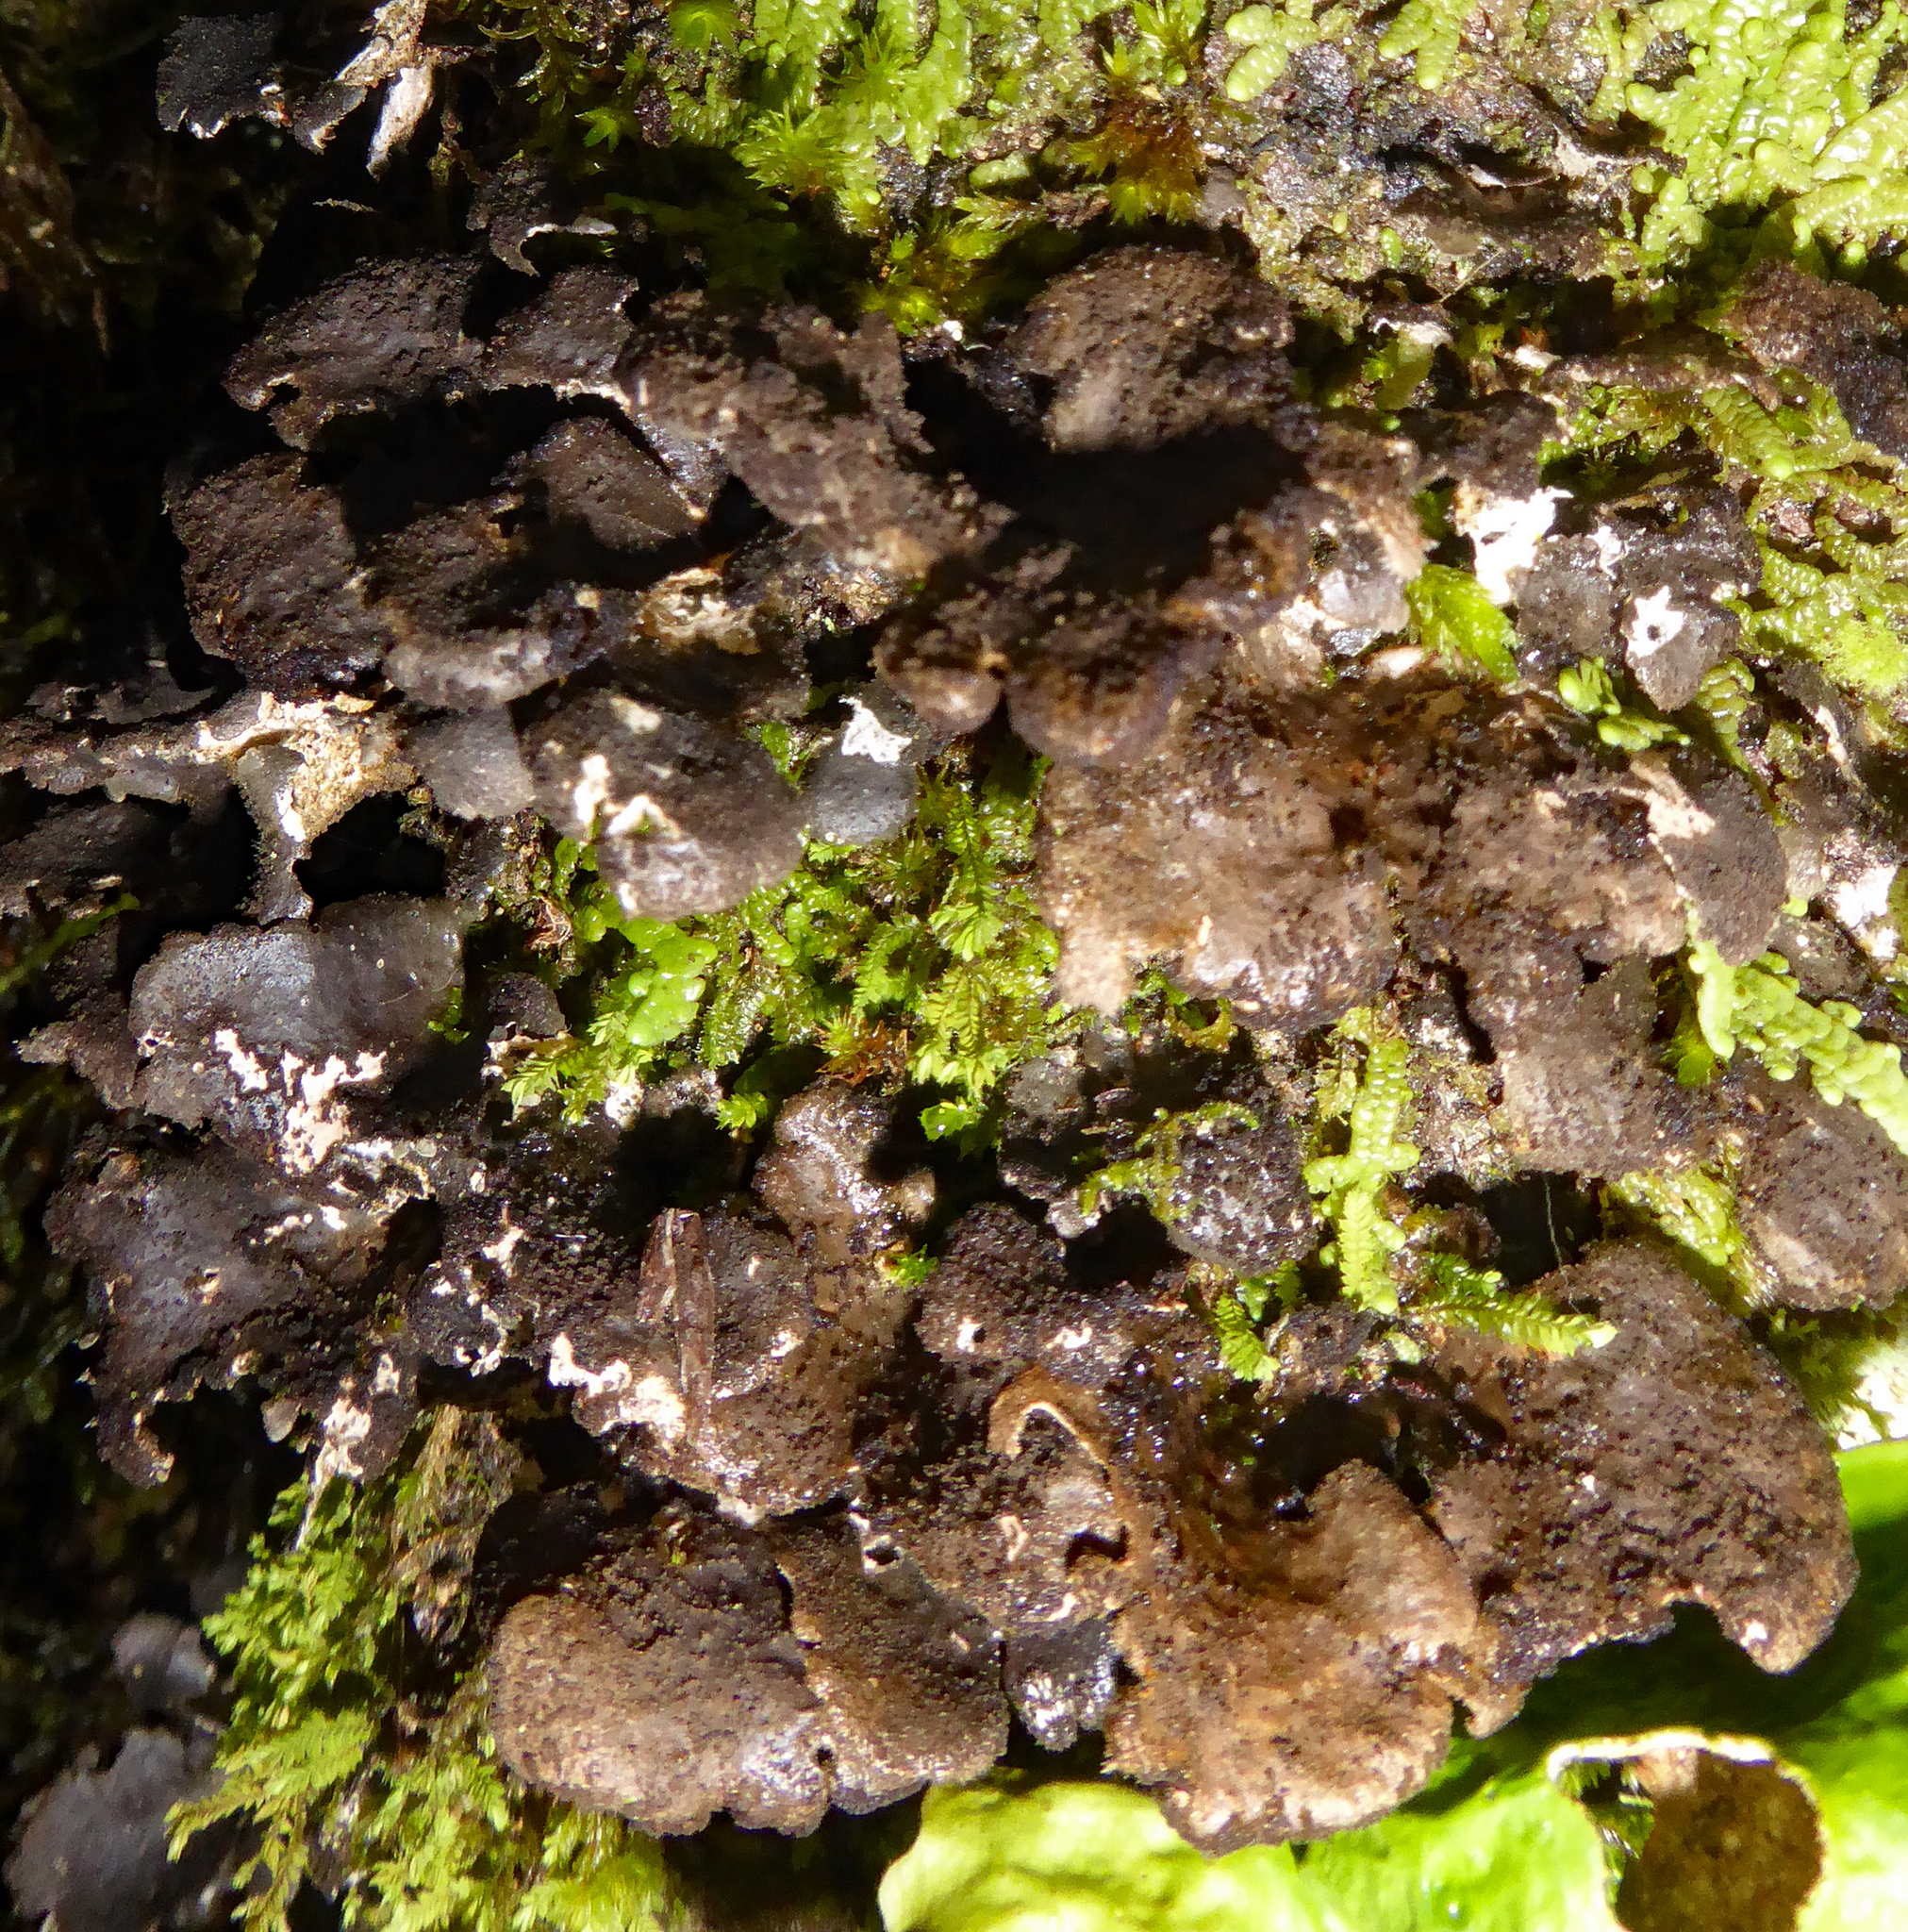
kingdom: Fungi
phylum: Ascomycota
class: Lecanoromycetes
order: Peltigerales
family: Lobariaceae
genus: Sticta
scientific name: Sticta fuliginoides
